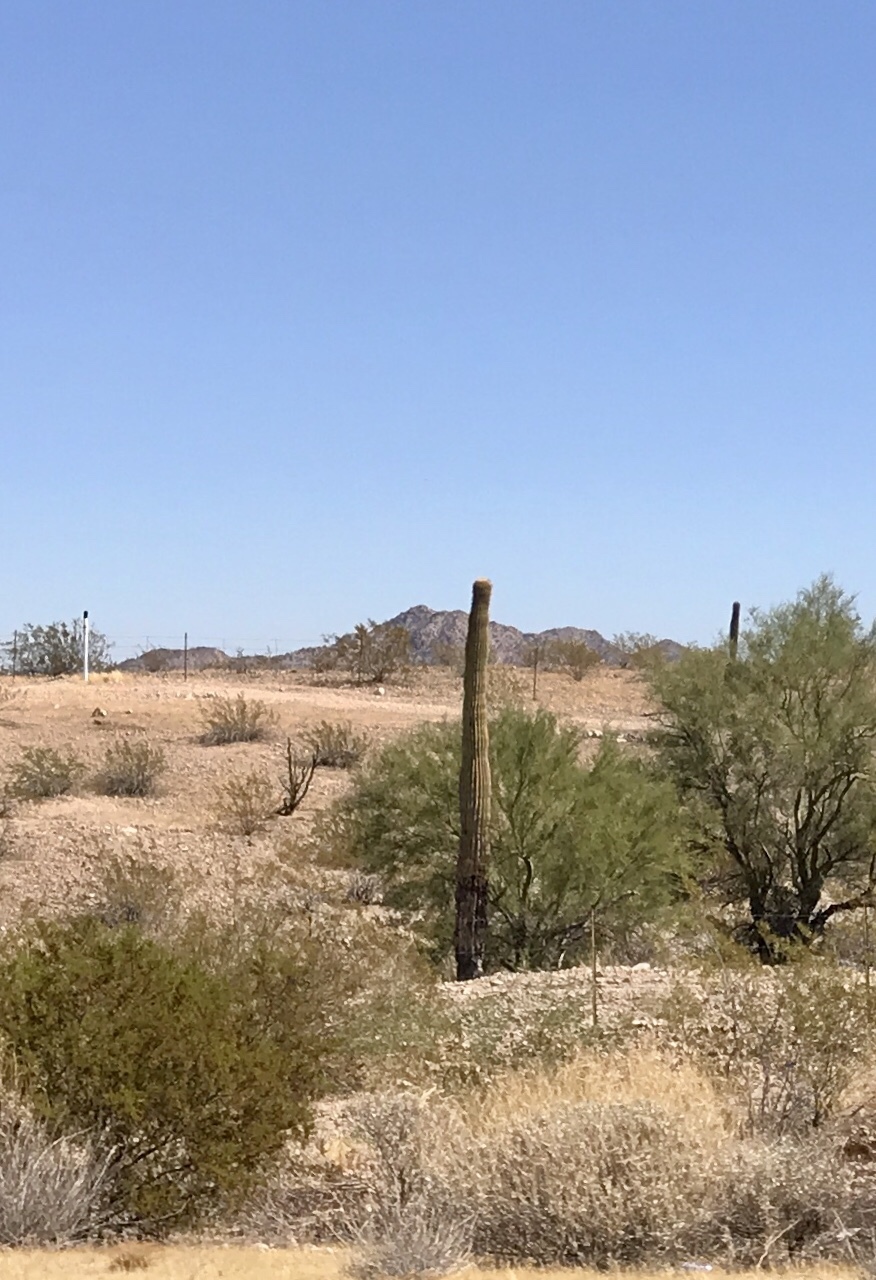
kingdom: Plantae
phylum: Tracheophyta
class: Magnoliopsida
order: Caryophyllales
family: Cactaceae
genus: Carnegiea
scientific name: Carnegiea gigantea
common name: Saguaro
